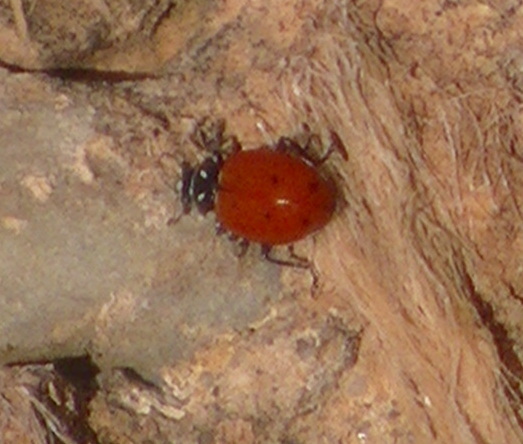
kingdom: Animalia
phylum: Arthropoda
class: Insecta
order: Coleoptera
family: Coccinellidae
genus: Hippodamia
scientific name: Hippodamia convergens
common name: Convergent lady beetle
